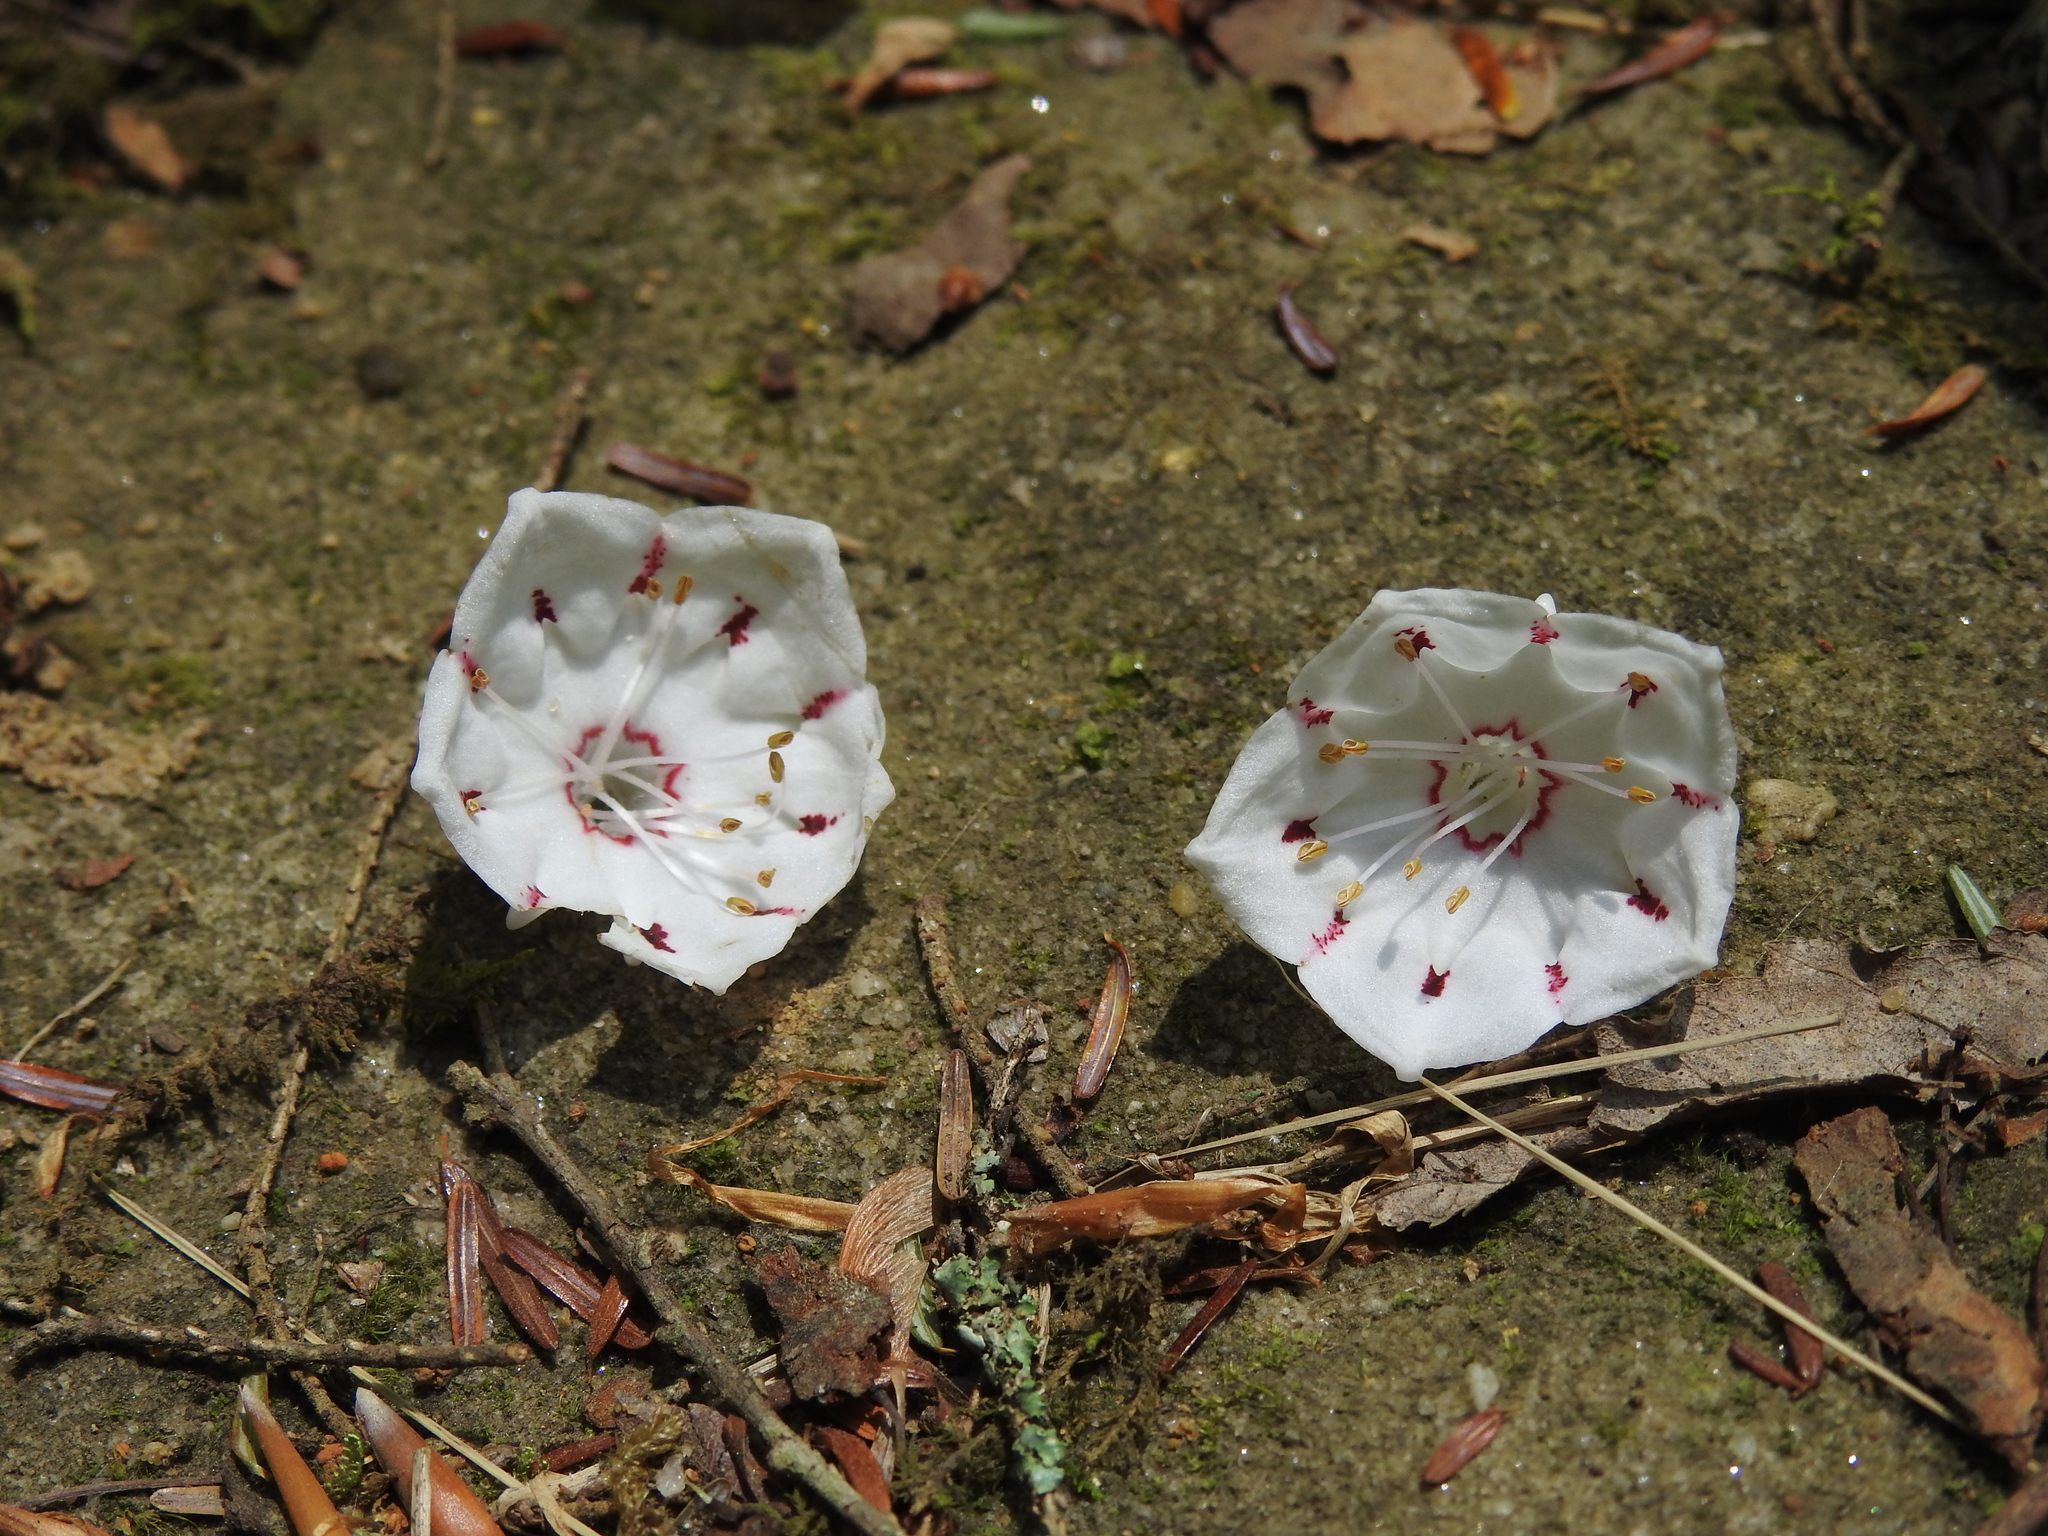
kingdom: Plantae
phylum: Tracheophyta
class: Magnoliopsida
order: Ericales
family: Ericaceae
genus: Kalmia
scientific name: Kalmia latifolia
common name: Mountain-laurel
